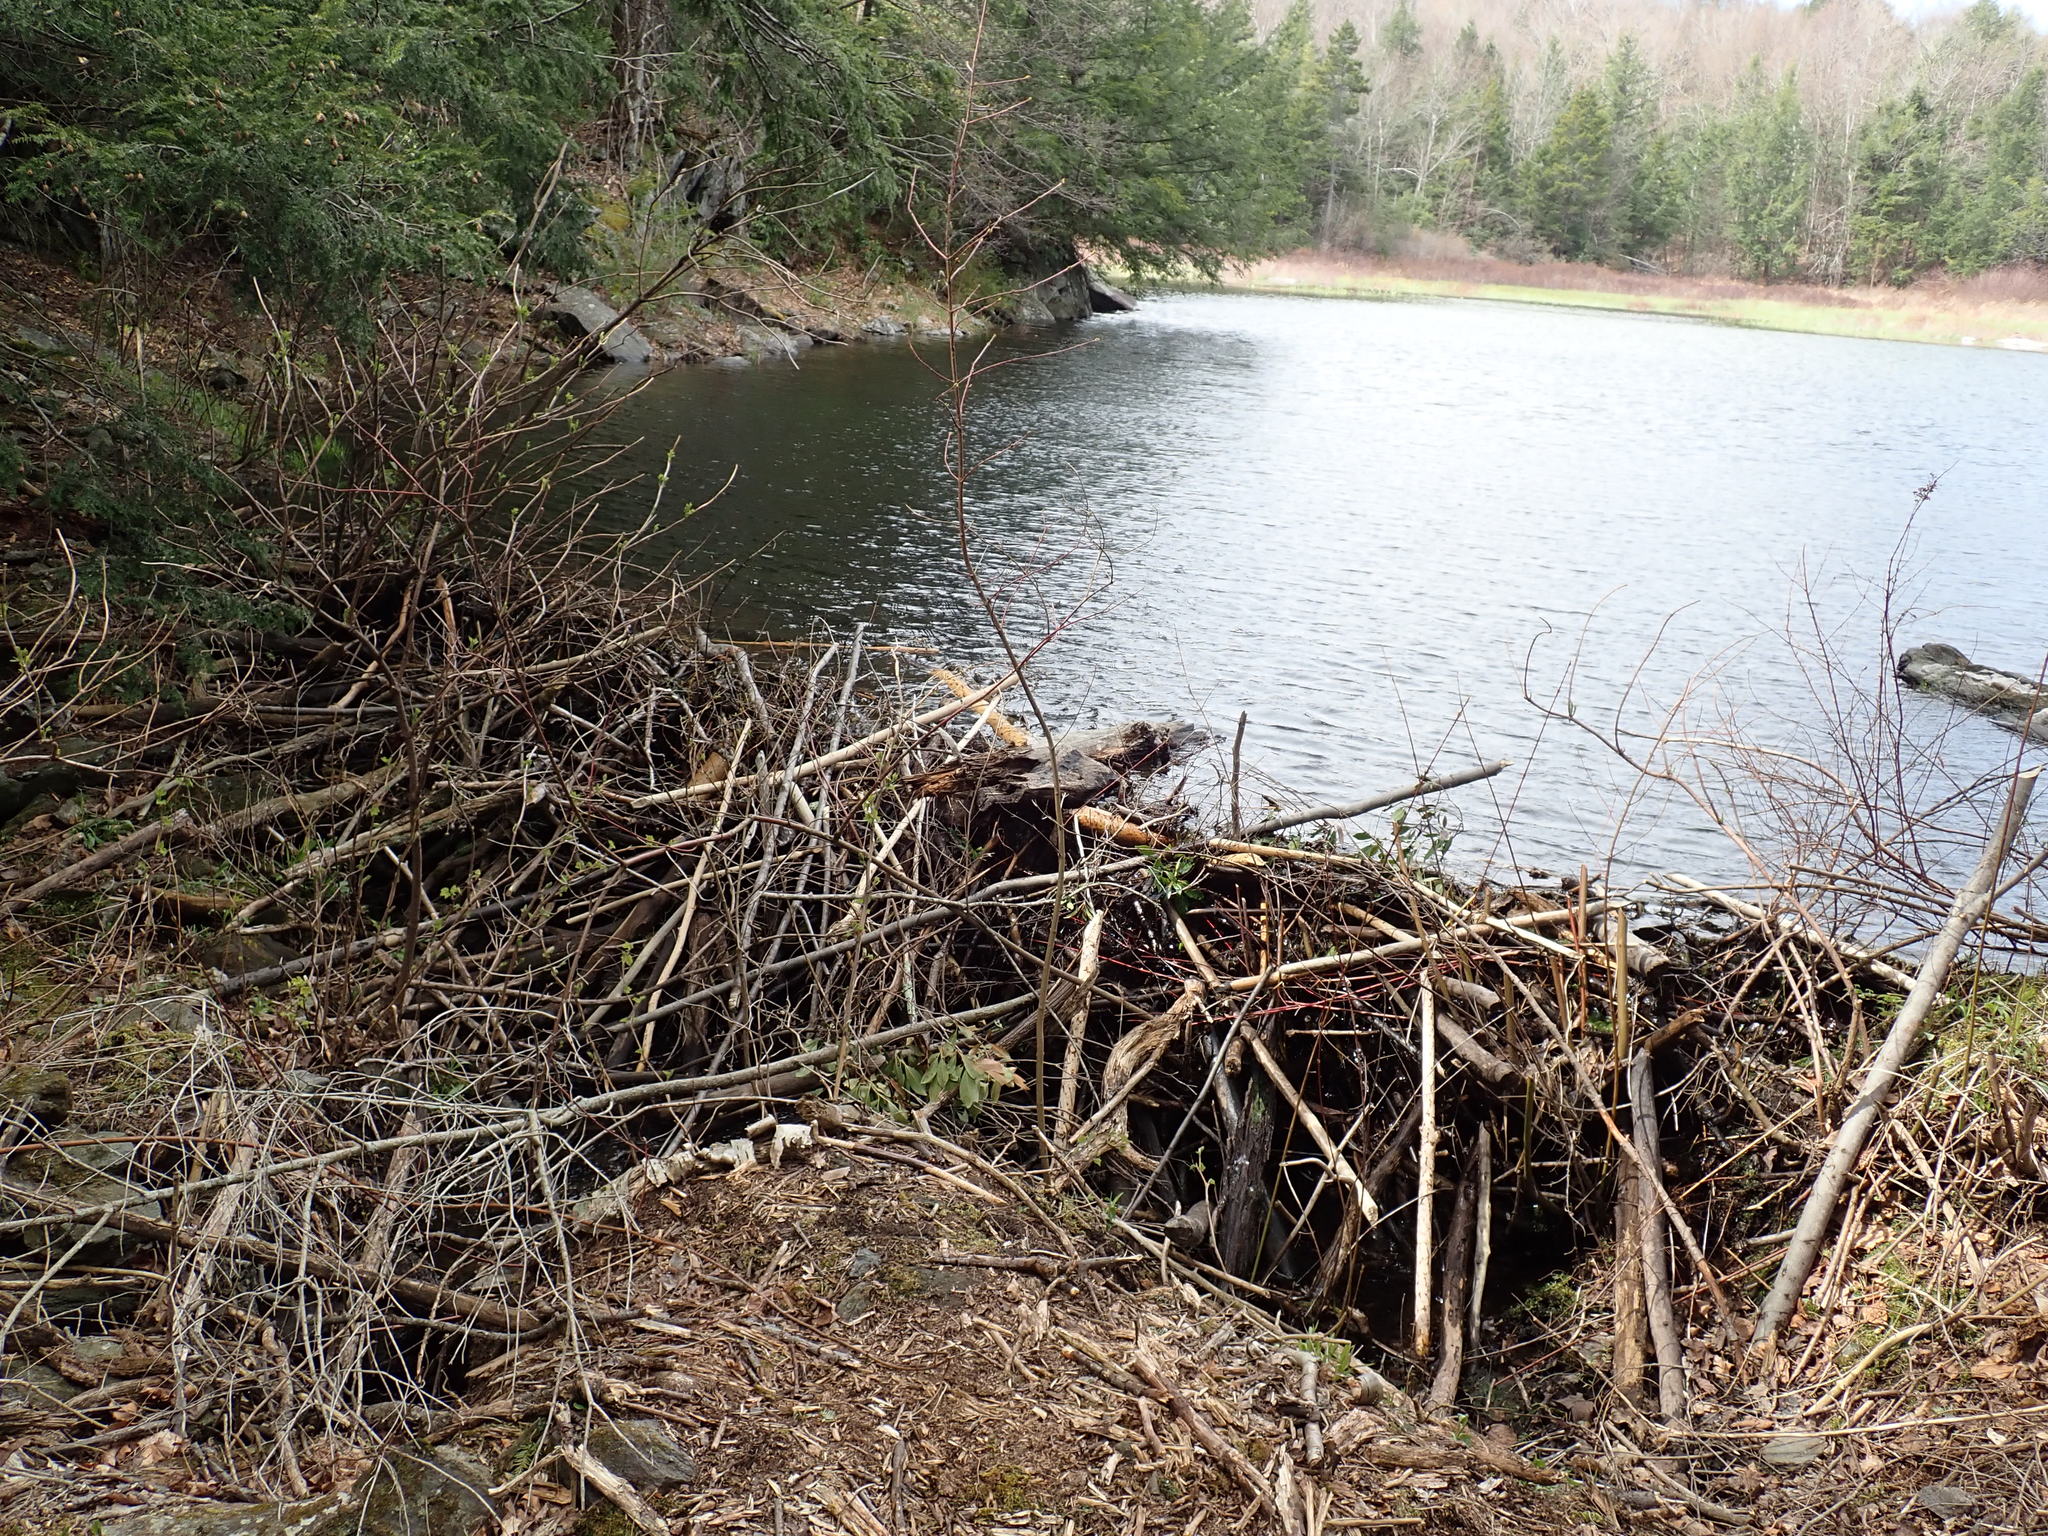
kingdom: Animalia
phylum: Chordata
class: Mammalia
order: Rodentia
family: Castoridae
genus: Castor
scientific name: Castor canadensis
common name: American beaver
